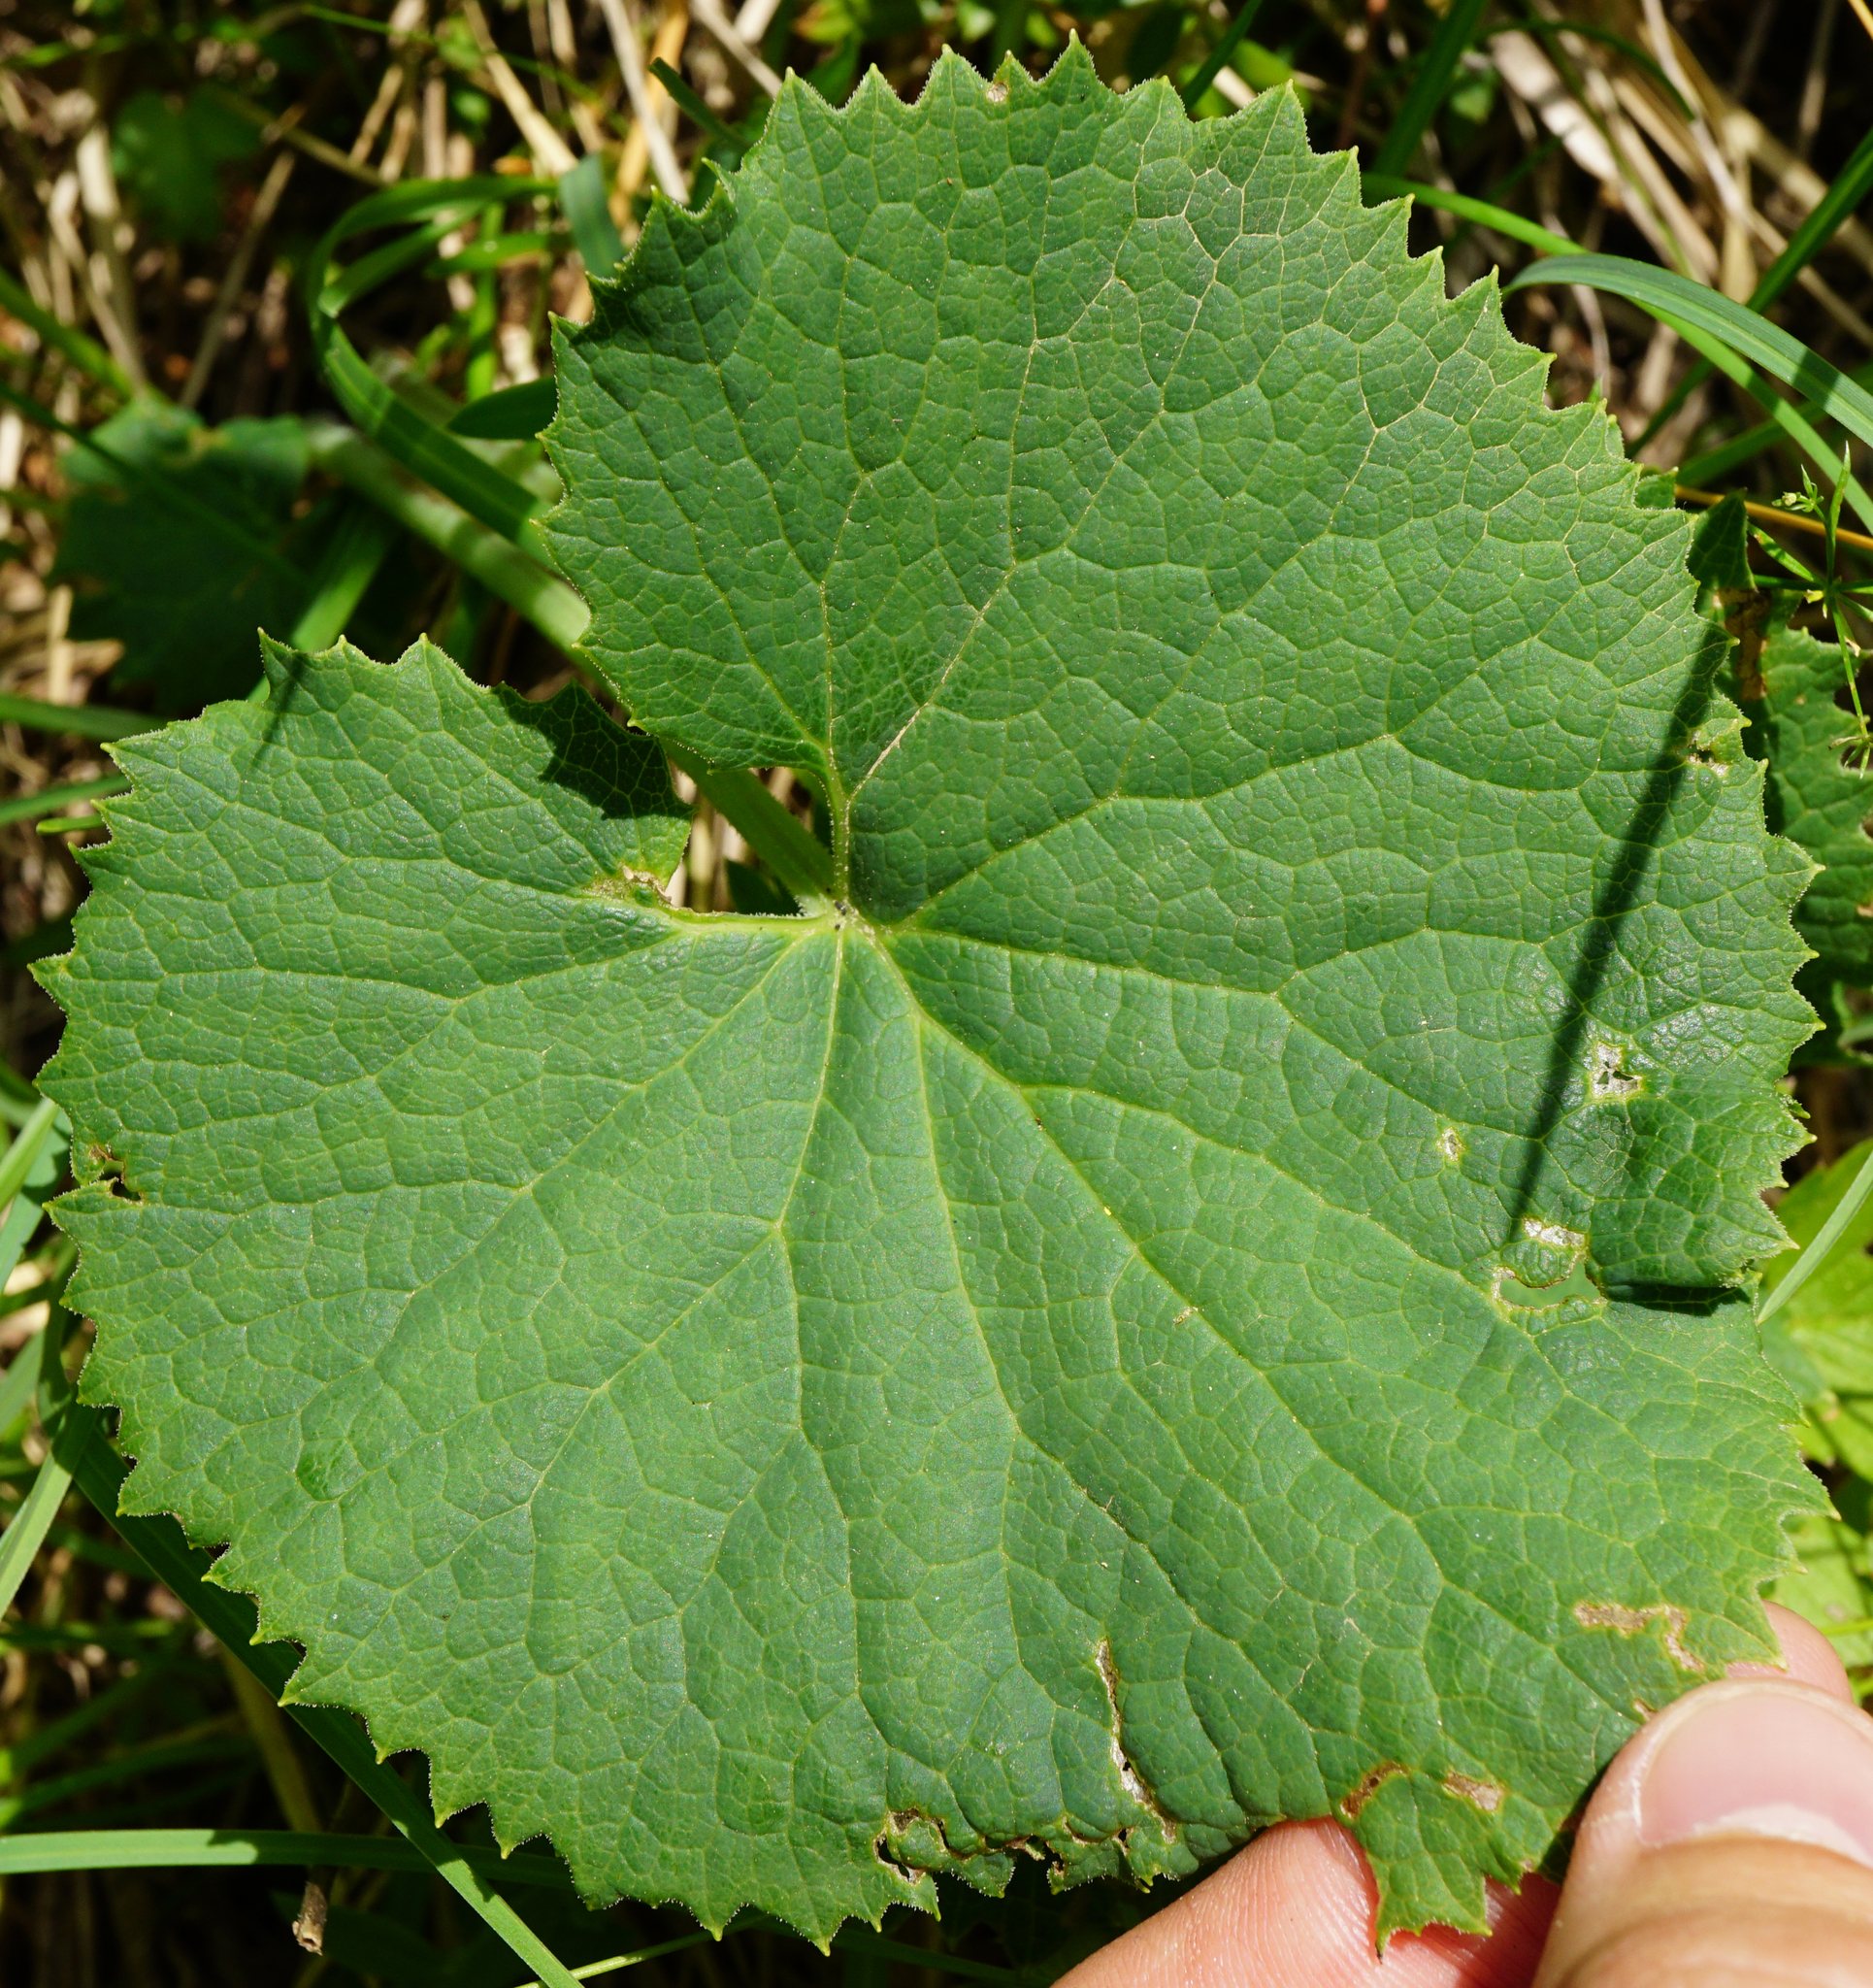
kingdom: Plantae
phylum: Tracheophyta
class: Magnoliopsida
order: Asterales
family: Asteraceae
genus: Adenostyles
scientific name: Adenostyles alpina
